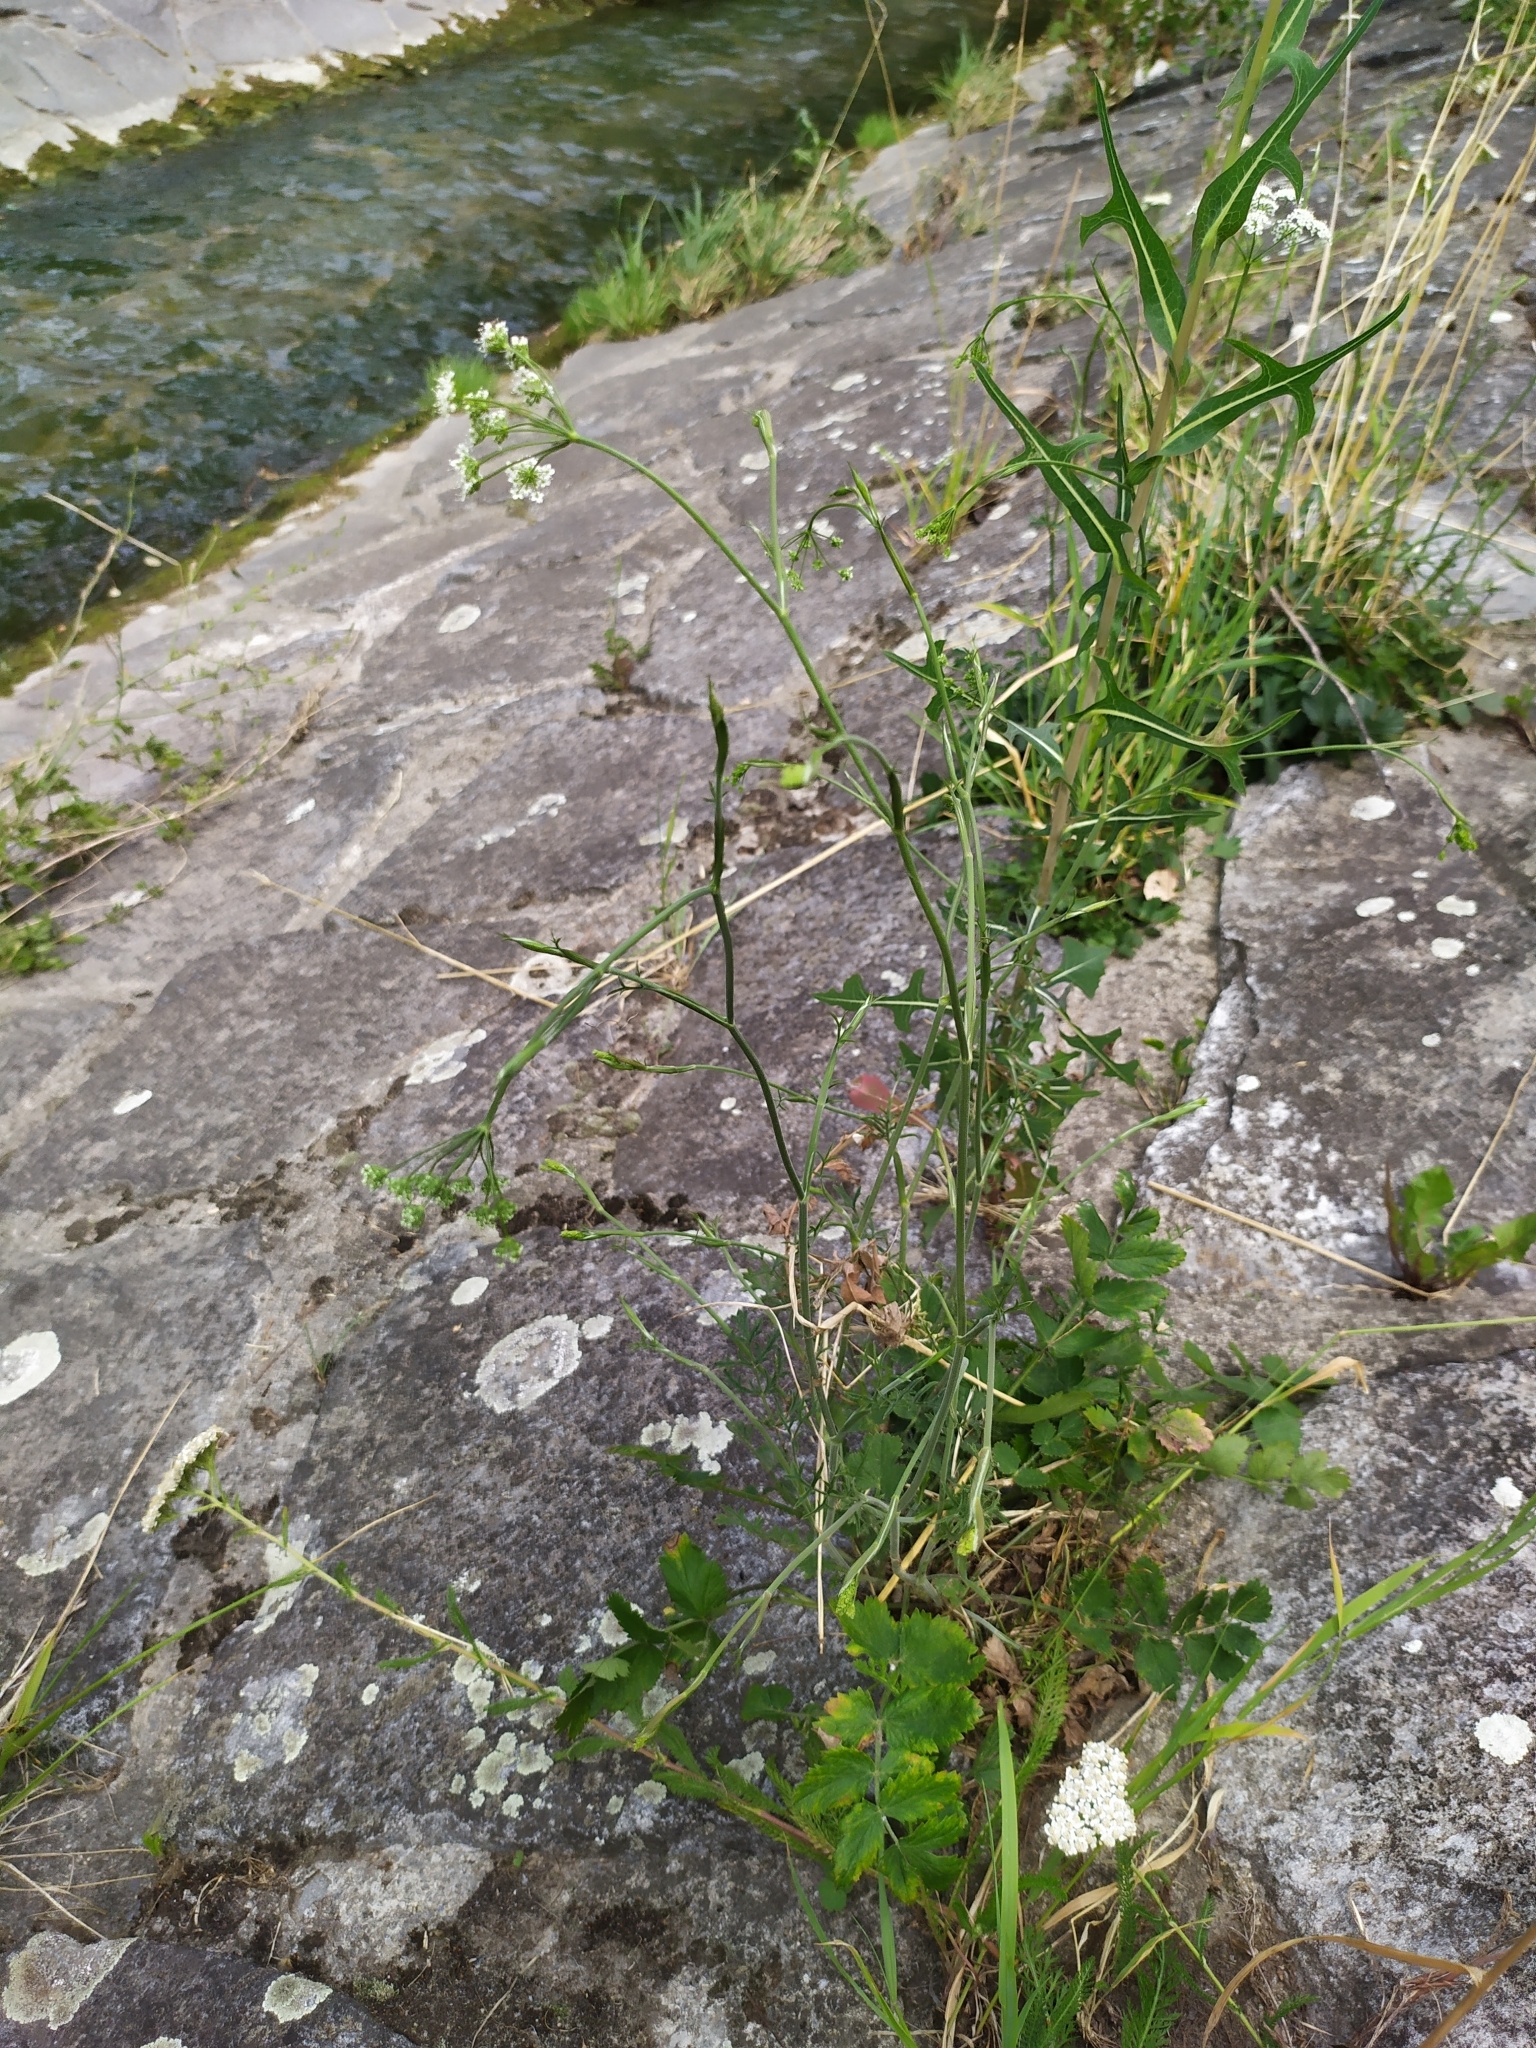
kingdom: Plantae
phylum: Tracheophyta
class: Magnoliopsida
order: Apiales
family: Apiaceae
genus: Pimpinella
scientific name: Pimpinella saxifraga
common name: Burnet-saxifrage
